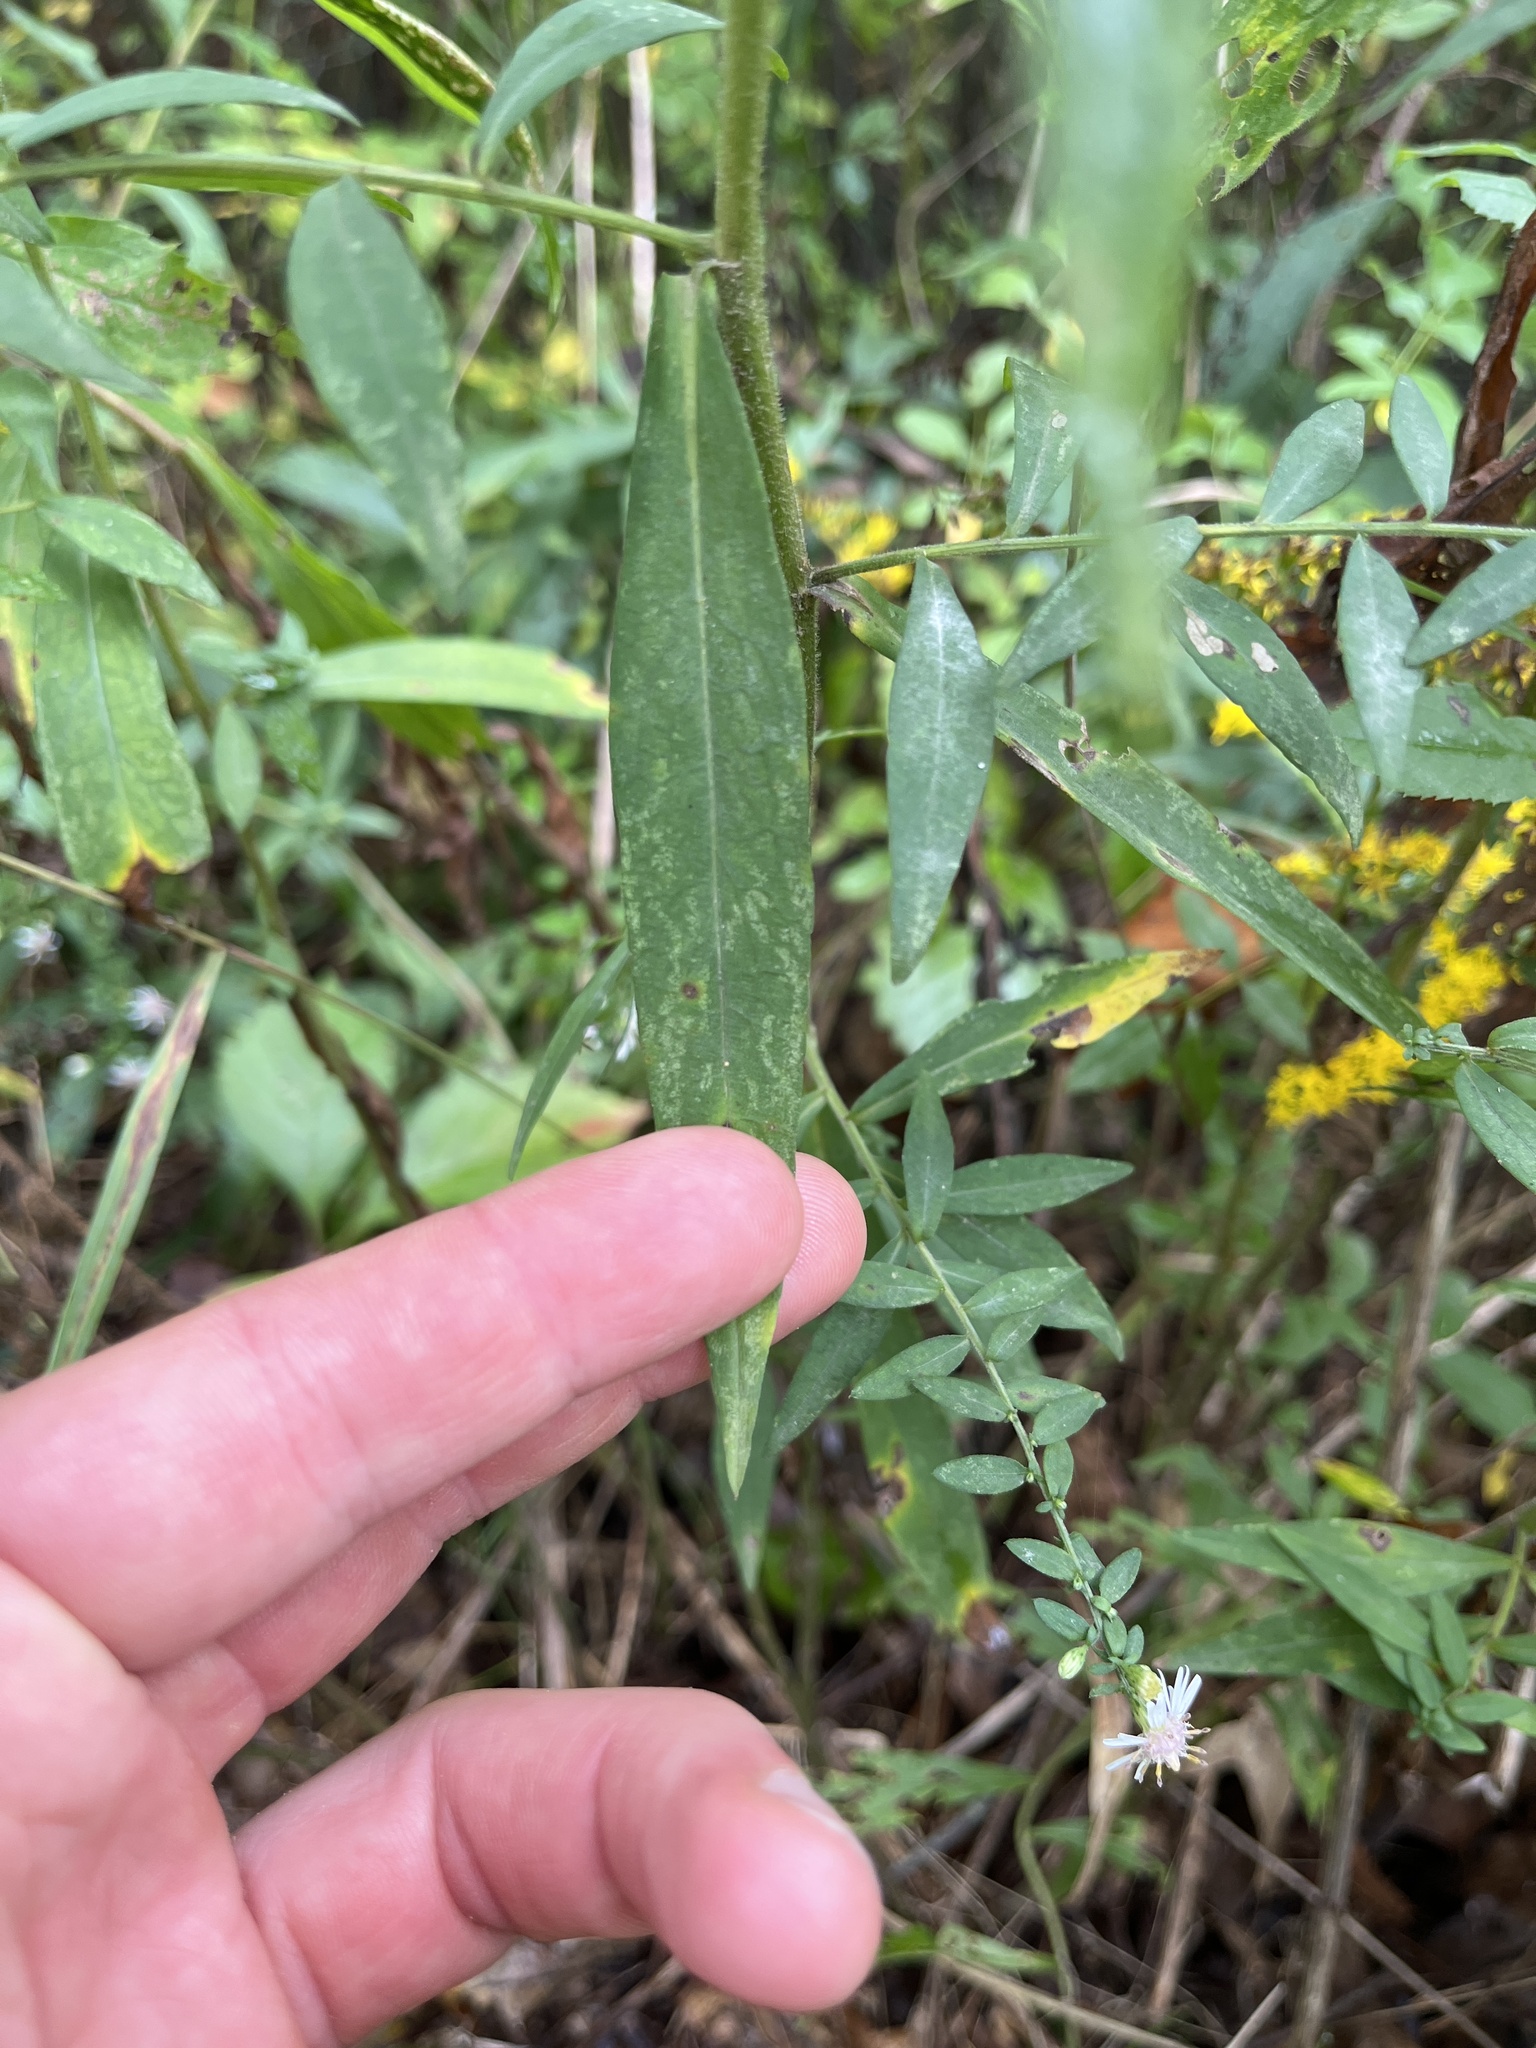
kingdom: Plantae
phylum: Tracheophyta
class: Magnoliopsida
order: Asterales
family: Asteraceae
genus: Symphyotrichum
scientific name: Symphyotrichum lateriflorum
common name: Calico aster
